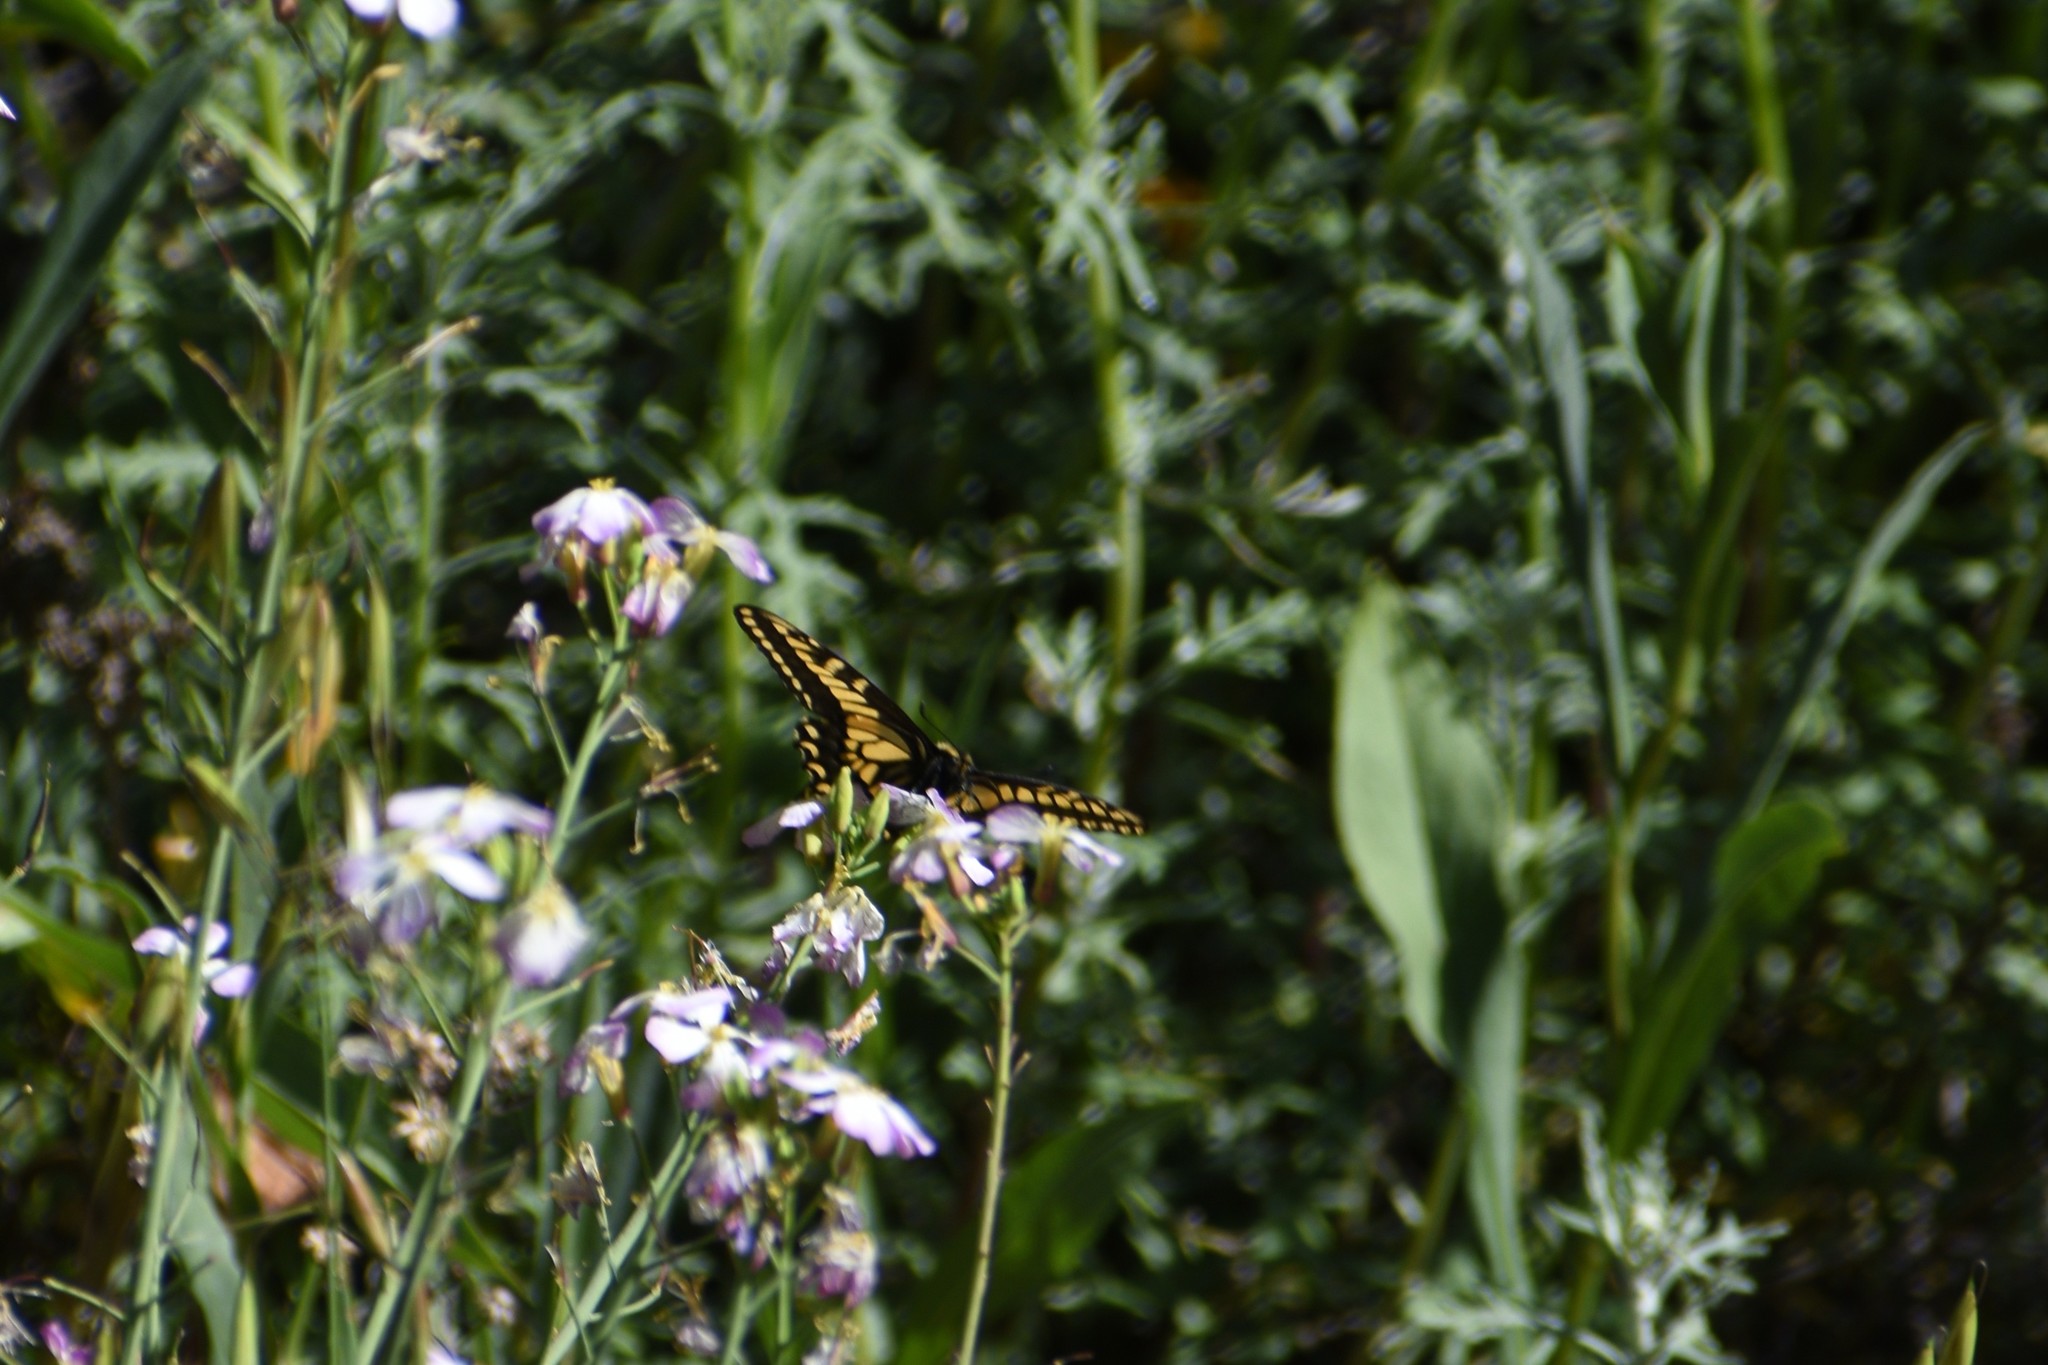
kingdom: Animalia
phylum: Arthropoda
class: Insecta
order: Lepidoptera
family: Papilionidae
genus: Papilio
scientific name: Papilio zelicaon
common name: Anise swallowtail
